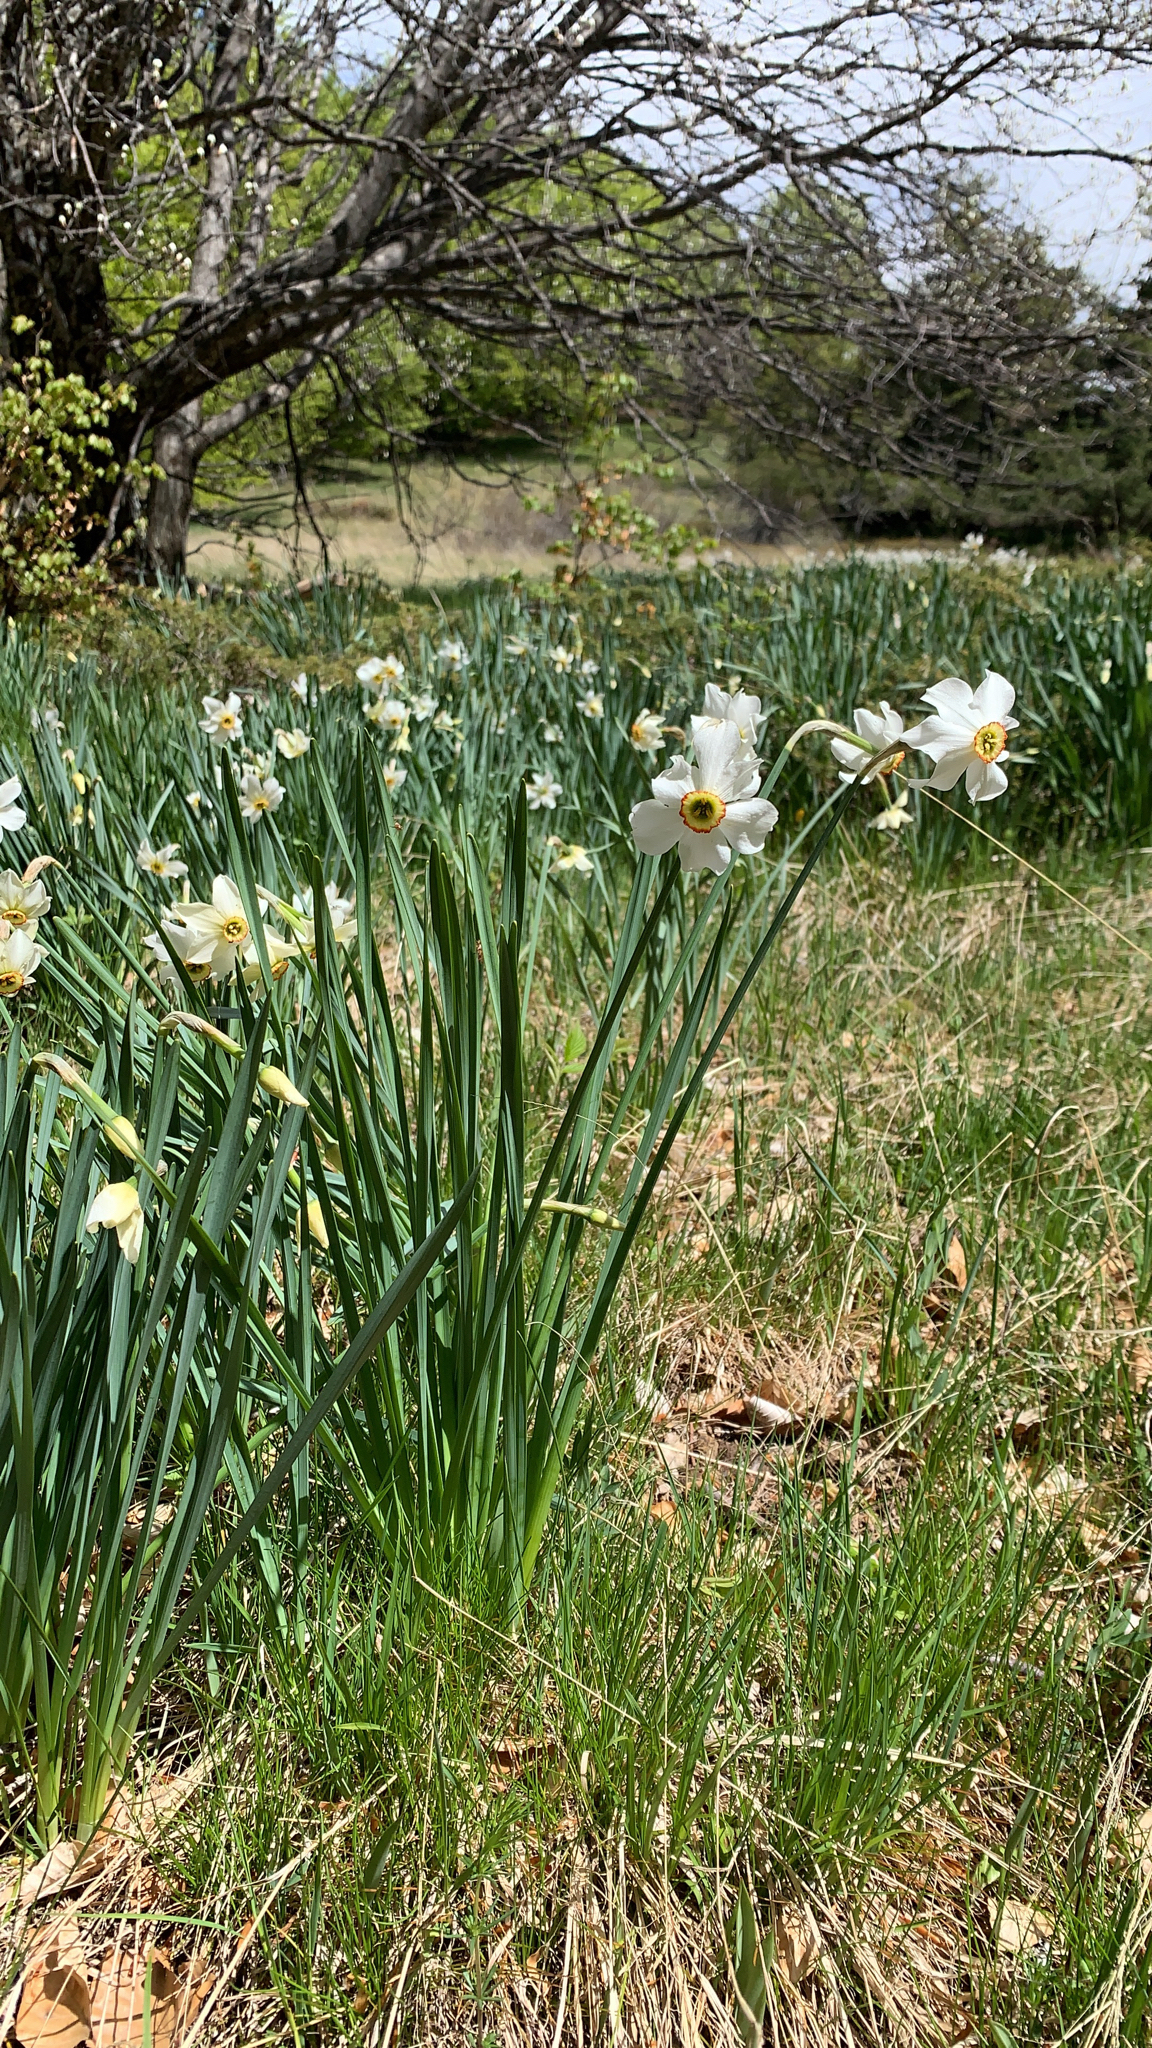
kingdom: Plantae
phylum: Tracheophyta
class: Liliopsida
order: Asparagales
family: Amaryllidaceae
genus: Narcissus
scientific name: Narcissus poeticus
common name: Pheasant's-eye daffodil
